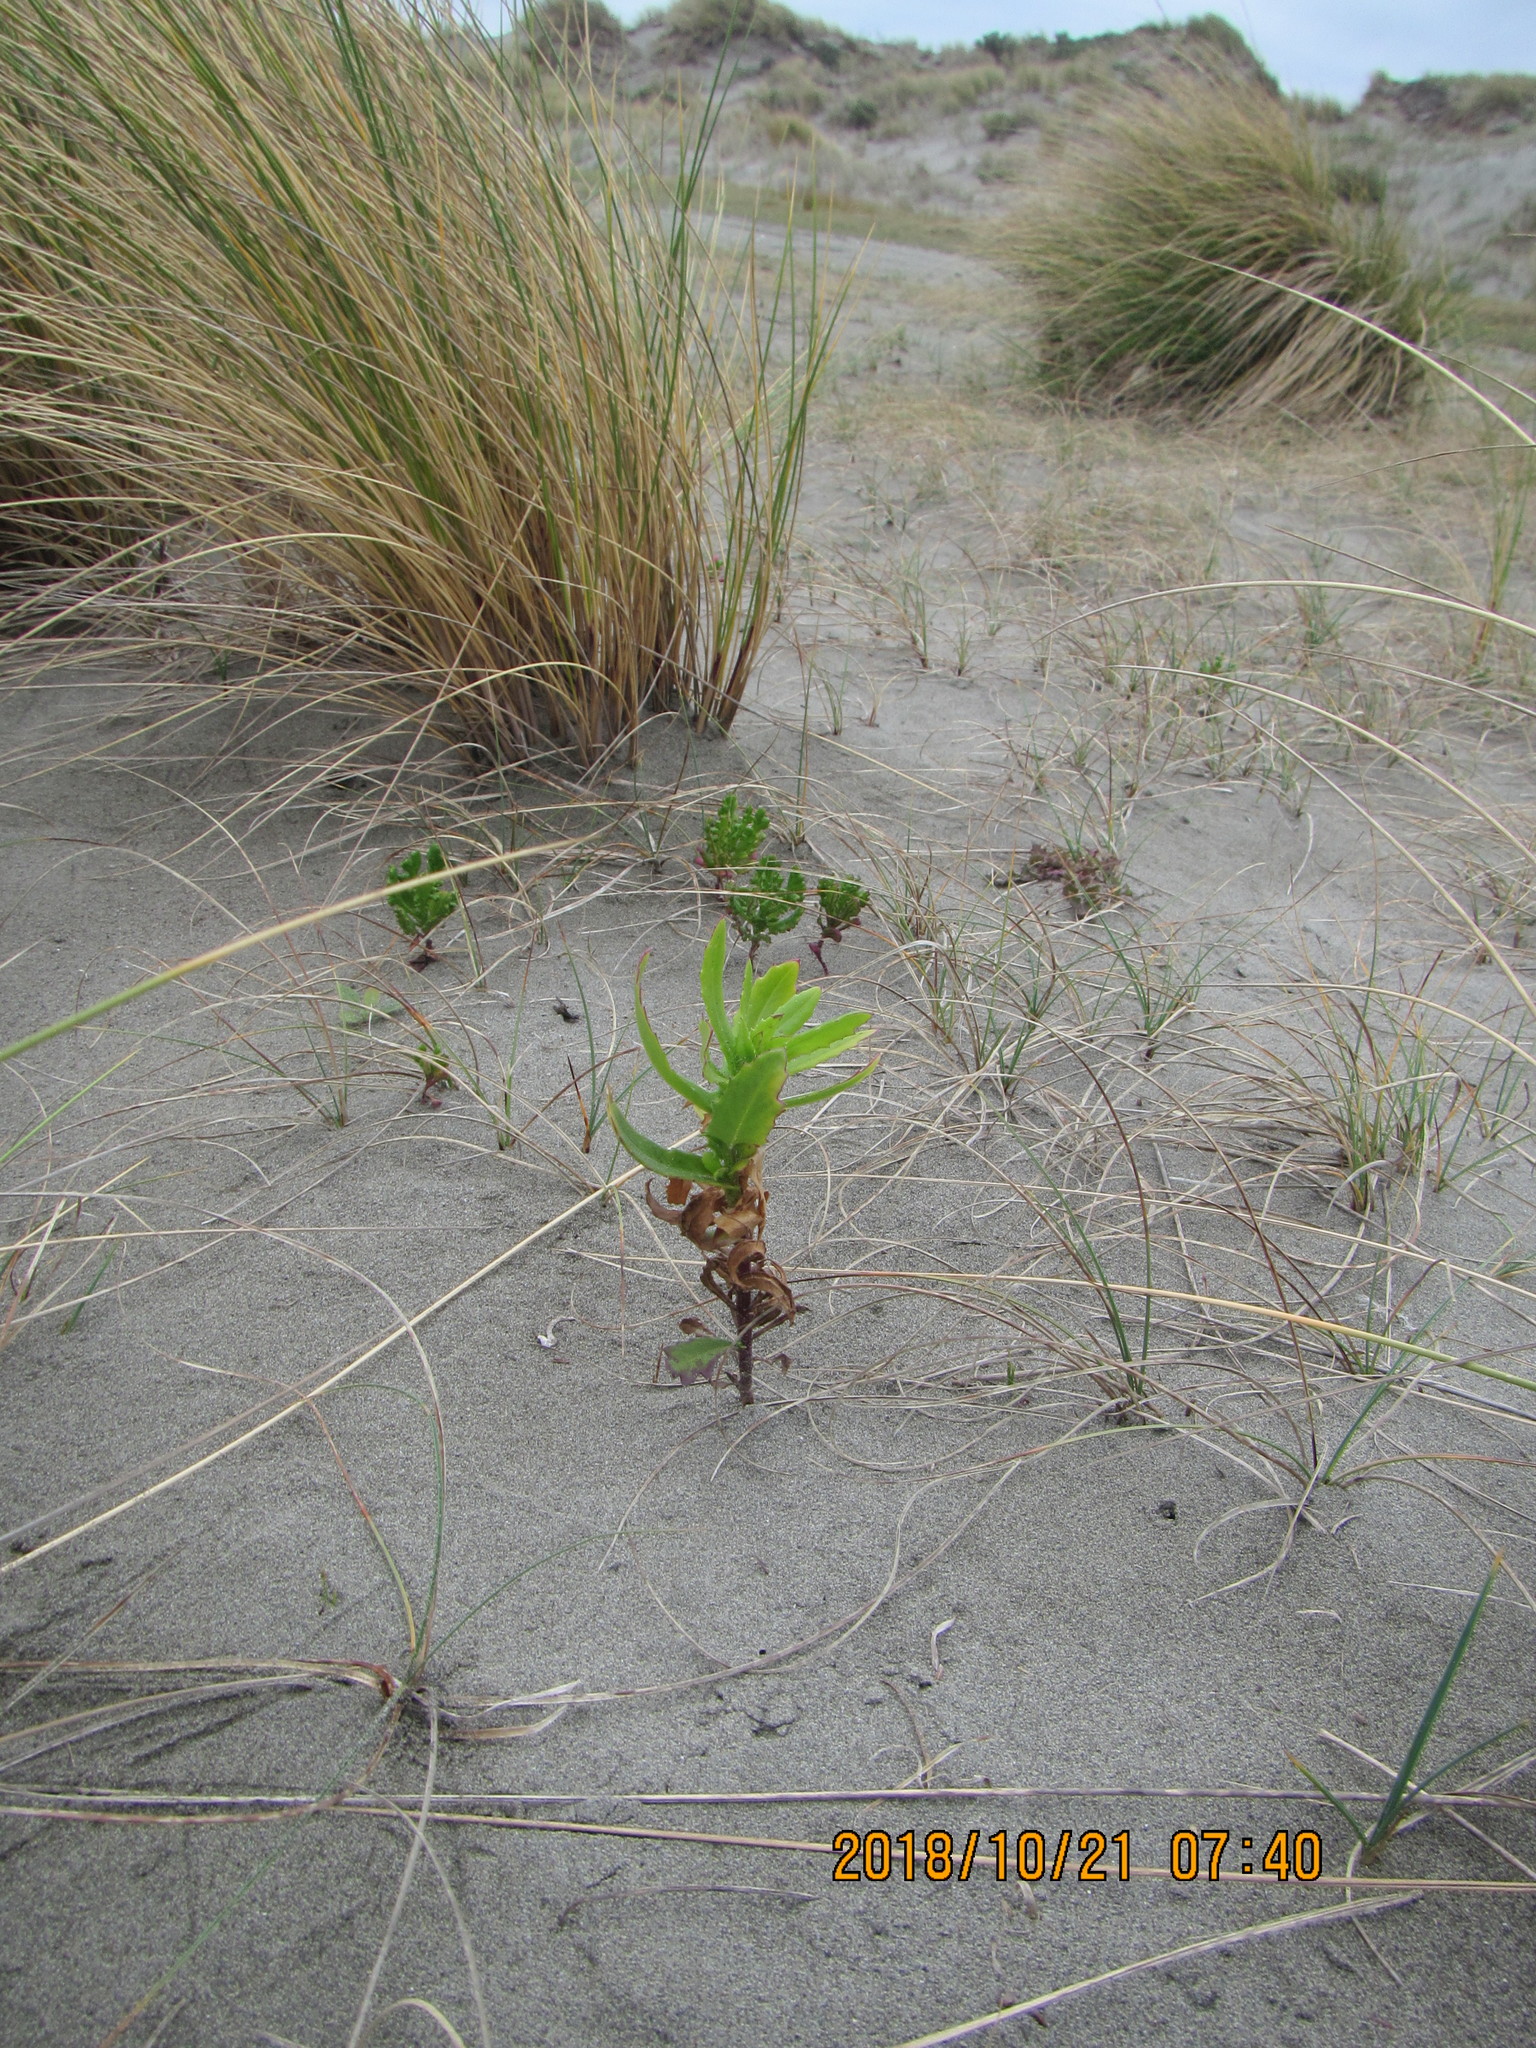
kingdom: Plantae
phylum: Tracheophyta
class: Magnoliopsida
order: Asterales
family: Asteraceae
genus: Senecio
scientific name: Senecio glastifolius
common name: Woad-leaved ragwort
